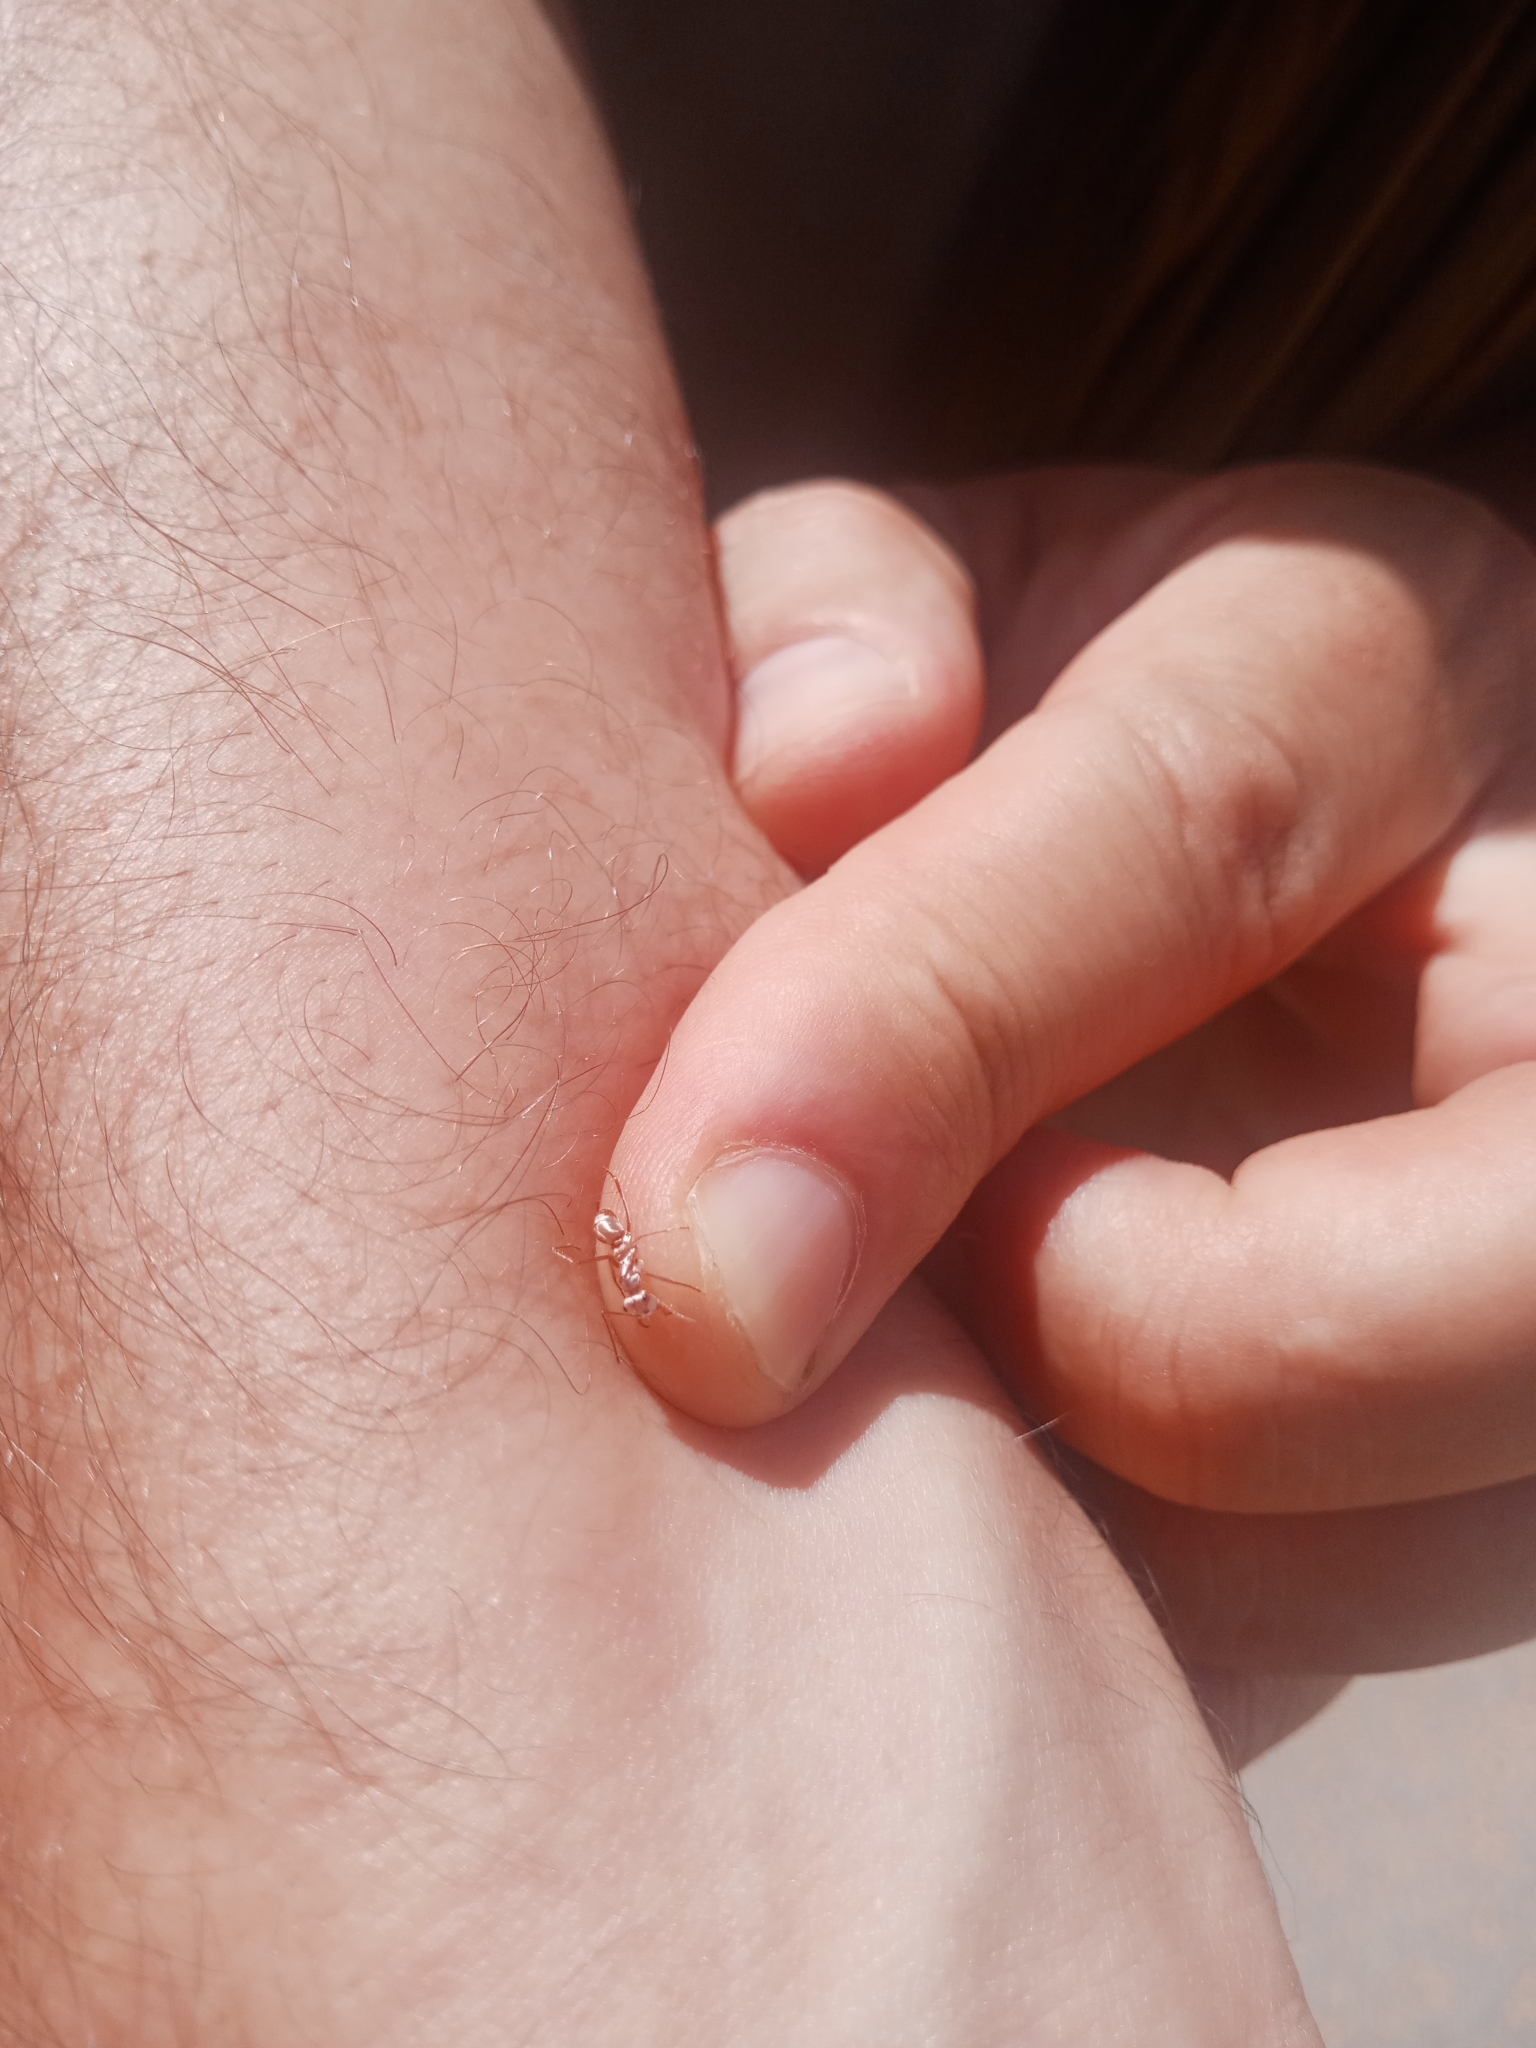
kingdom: Animalia
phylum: Arthropoda
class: Insecta
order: Hymenoptera
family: Formicidae
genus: Cataglyphis
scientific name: Cataglyphis bombycinus
